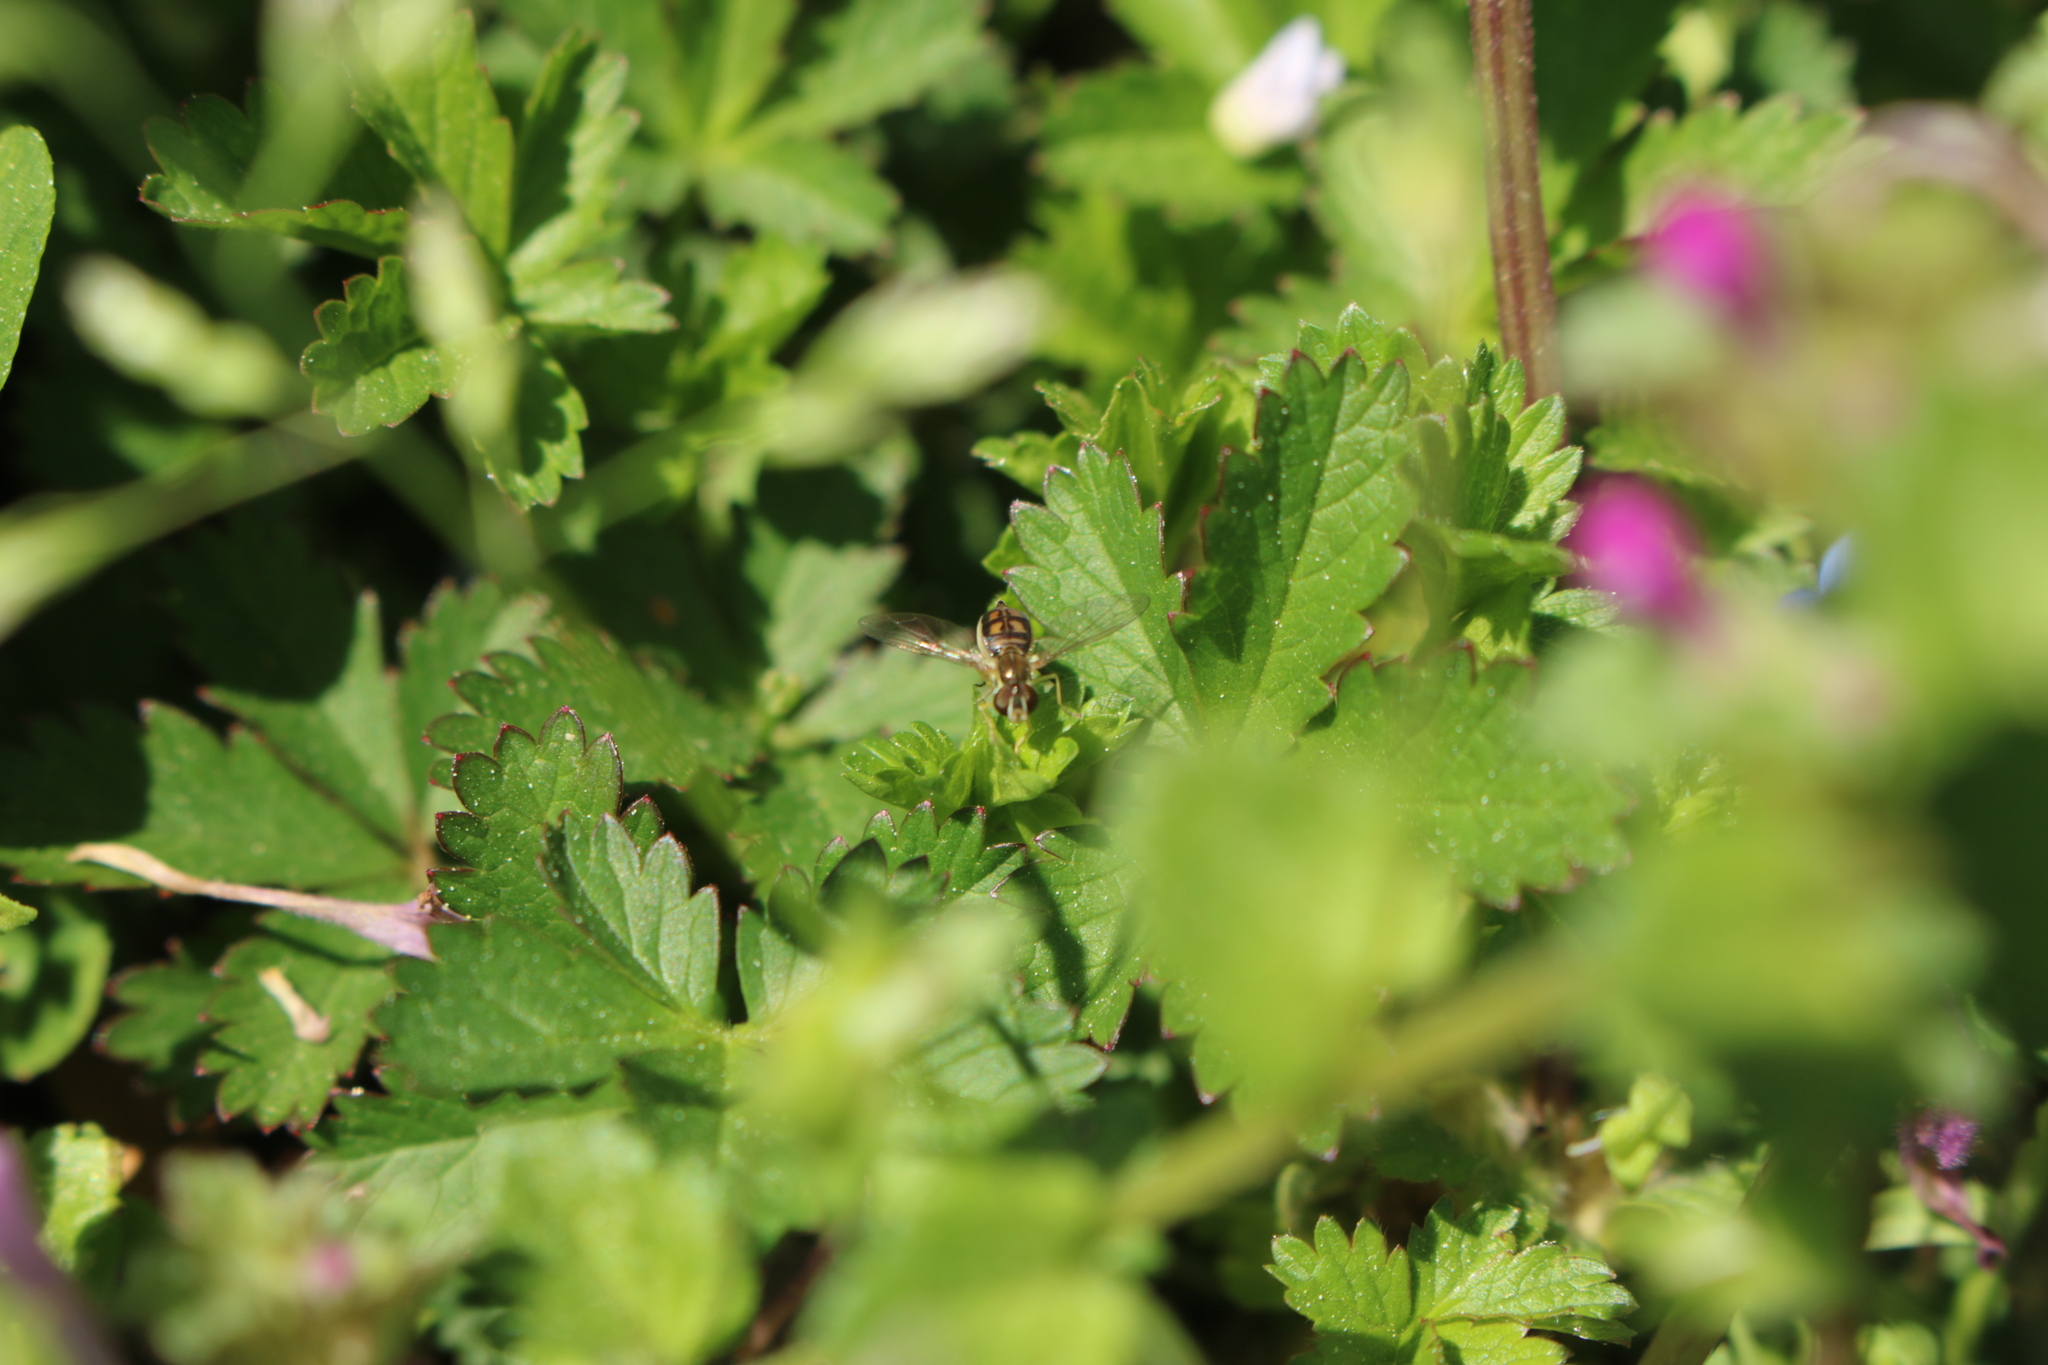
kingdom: Animalia
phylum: Arthropoda
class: Insecta
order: Diptera
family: Syrphidae
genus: Toxomerus
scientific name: Toxomerus marginatus
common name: Syrphid fly
